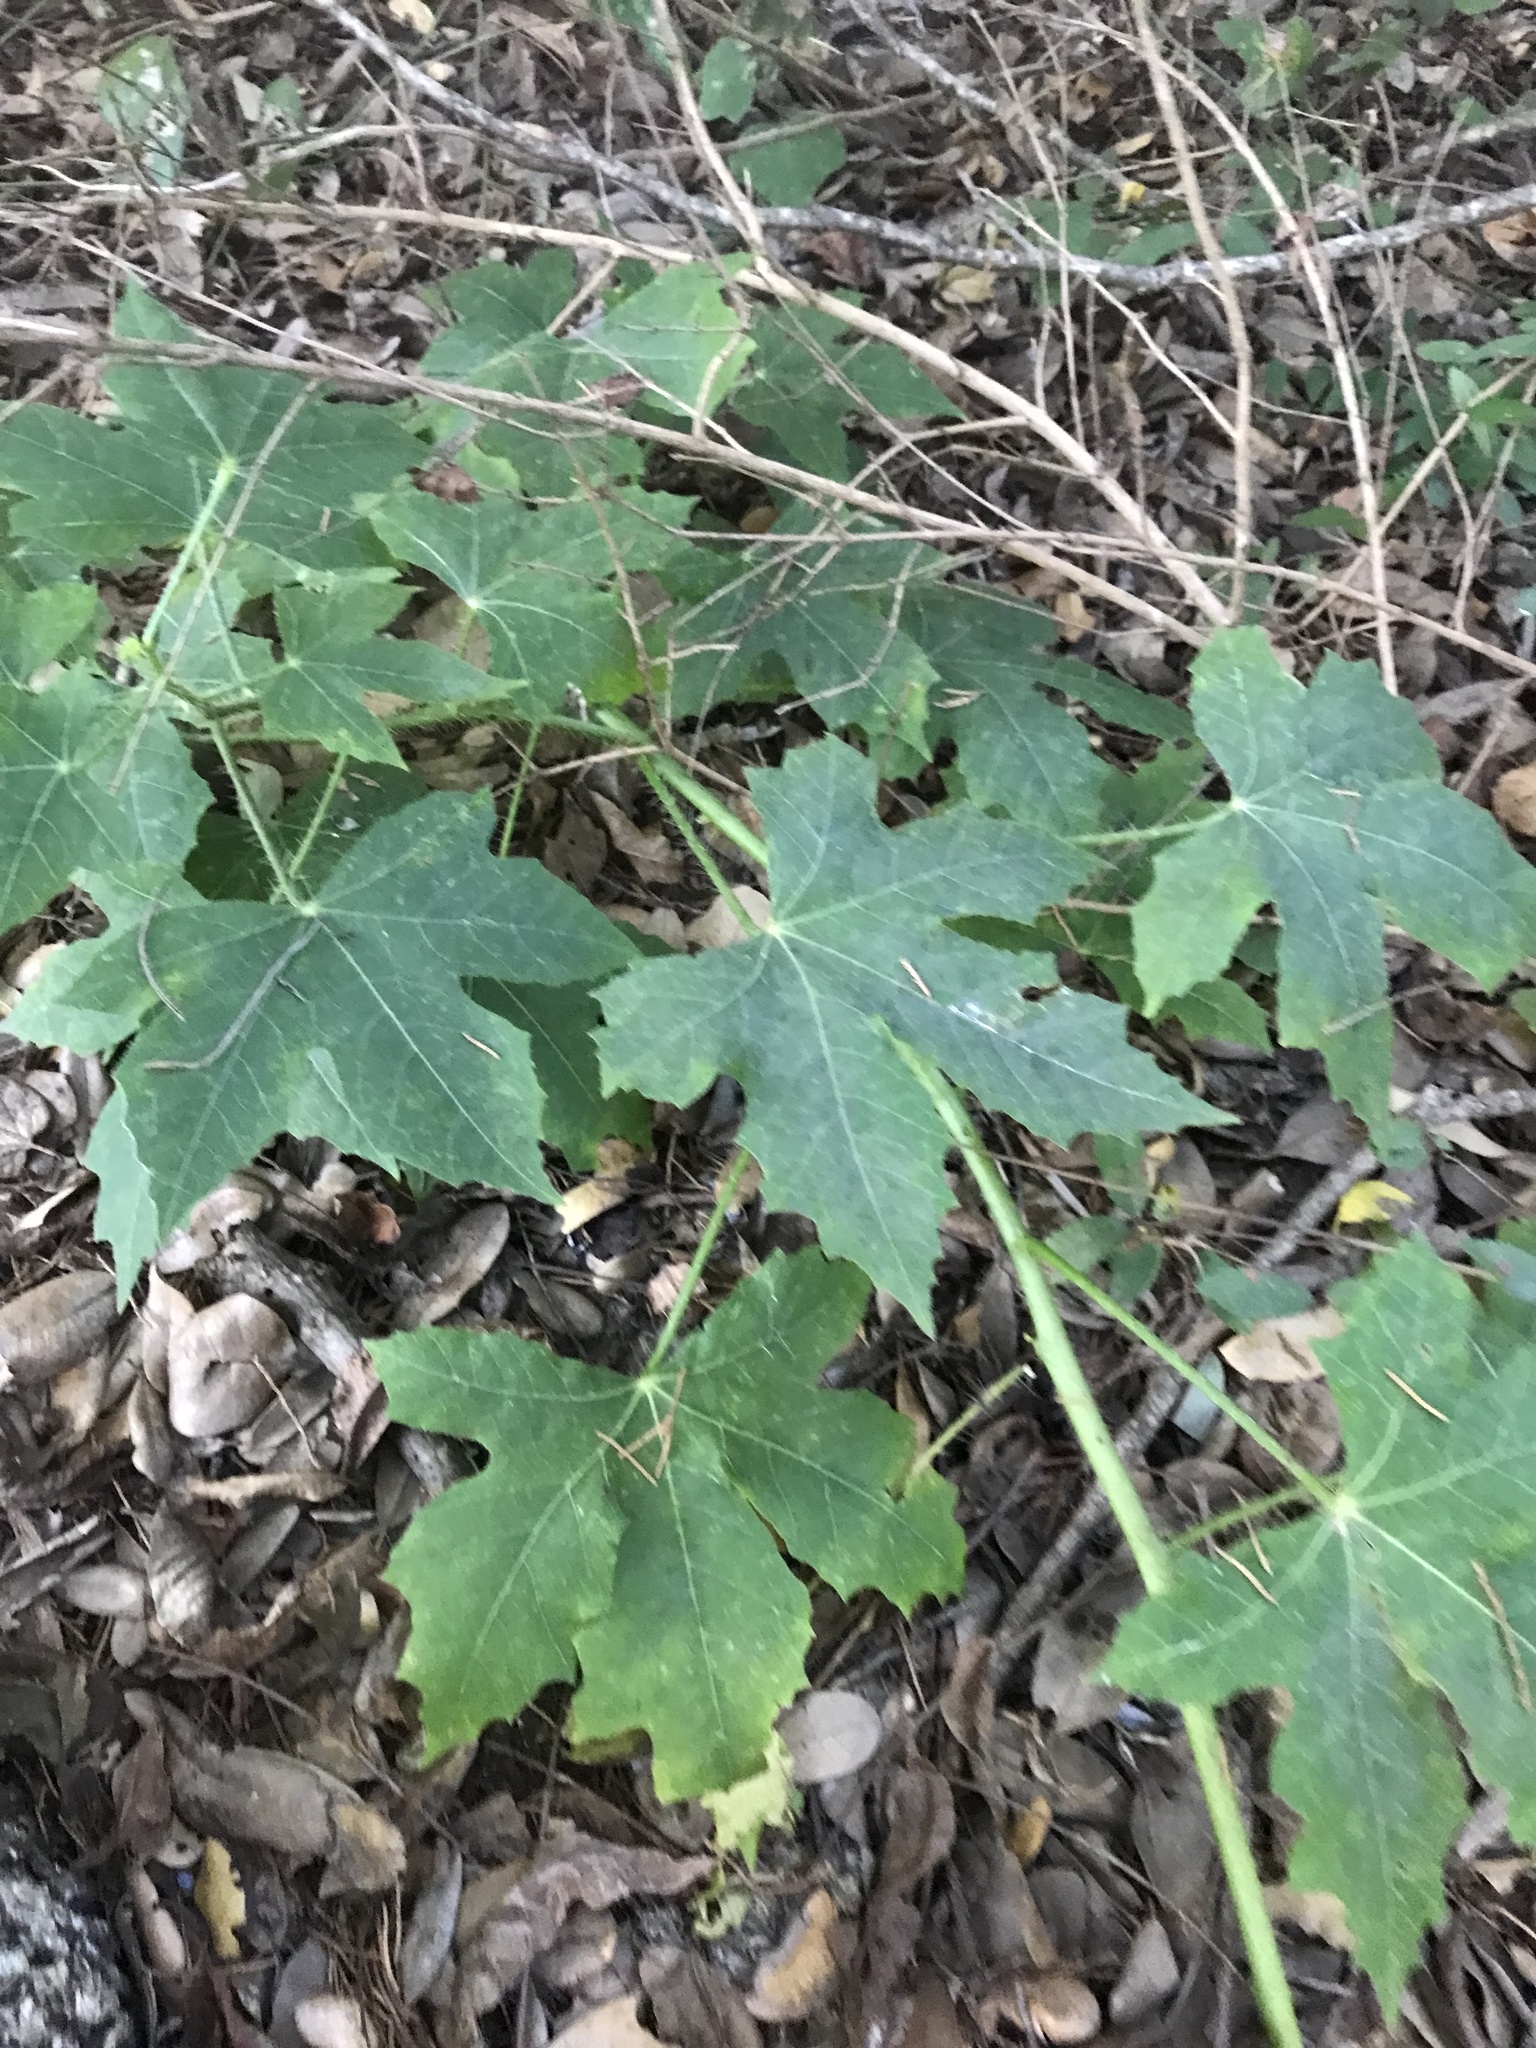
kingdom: Plantae
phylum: Tracheophyta
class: Magnoliopsida
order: Malpighiales
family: Euphorbiaceae
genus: Cnidoscolus
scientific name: Cnidoscolus texanus
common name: Texas bull-nettle
